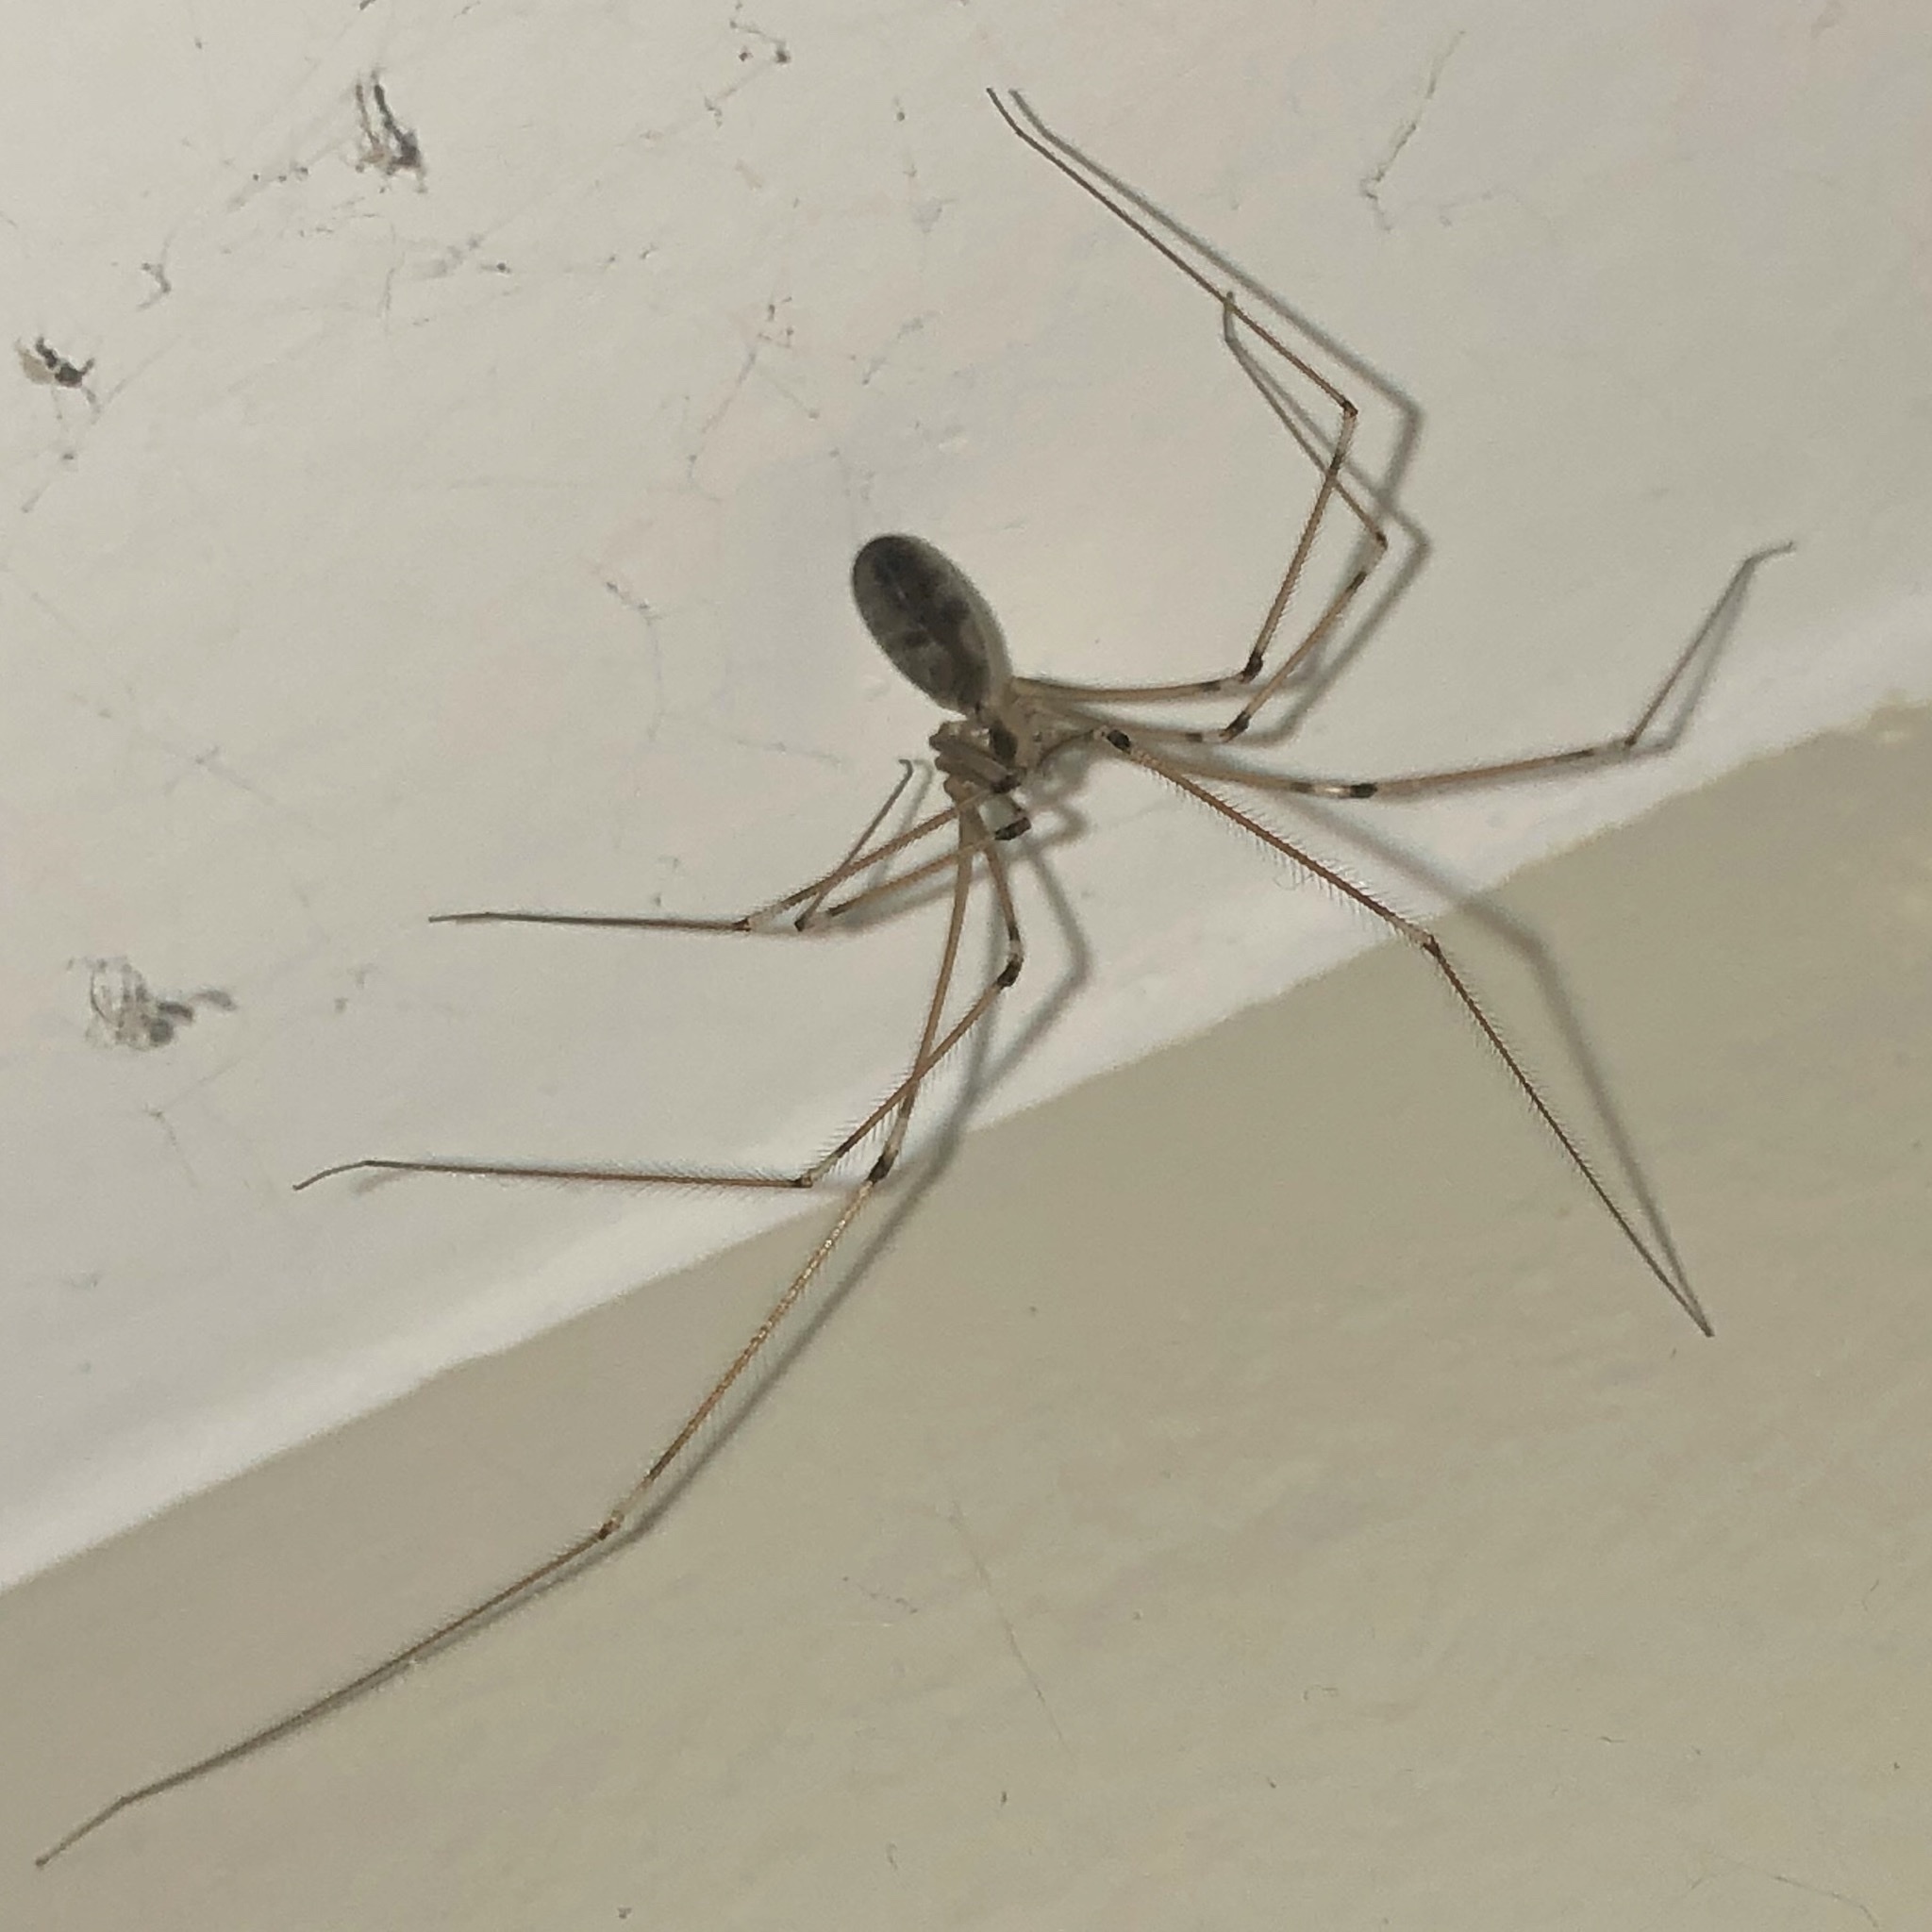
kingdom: Animalia
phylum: Arthropoda
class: Arachnida
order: Araneae
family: Pholcidae
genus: Pholcus
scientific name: Pholcus phalangioides
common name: Longbodied cellar spider
